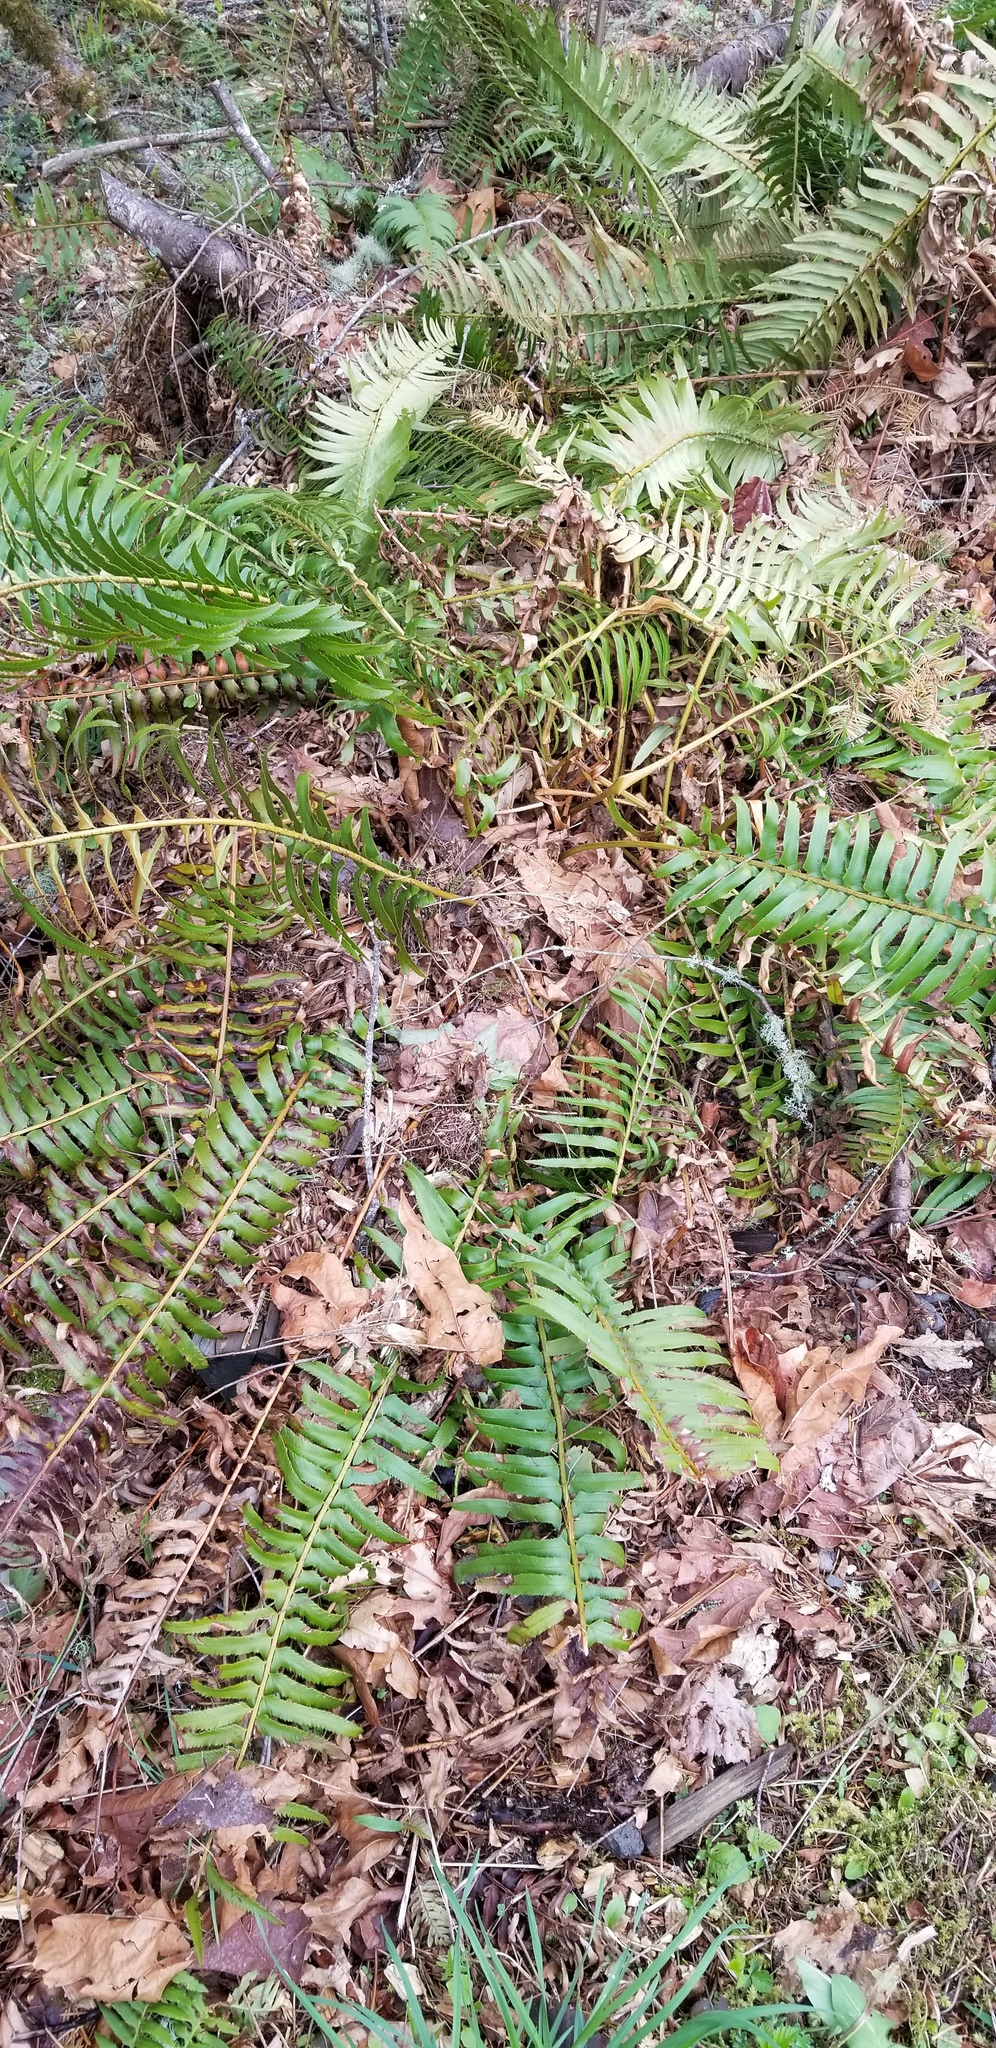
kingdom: Plantae
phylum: Tracheophyta
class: Polypodiopsida
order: Polypodiales
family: Dryopteridaceae
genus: Polystichum
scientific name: Polystichum munitum
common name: Western sword-fern
